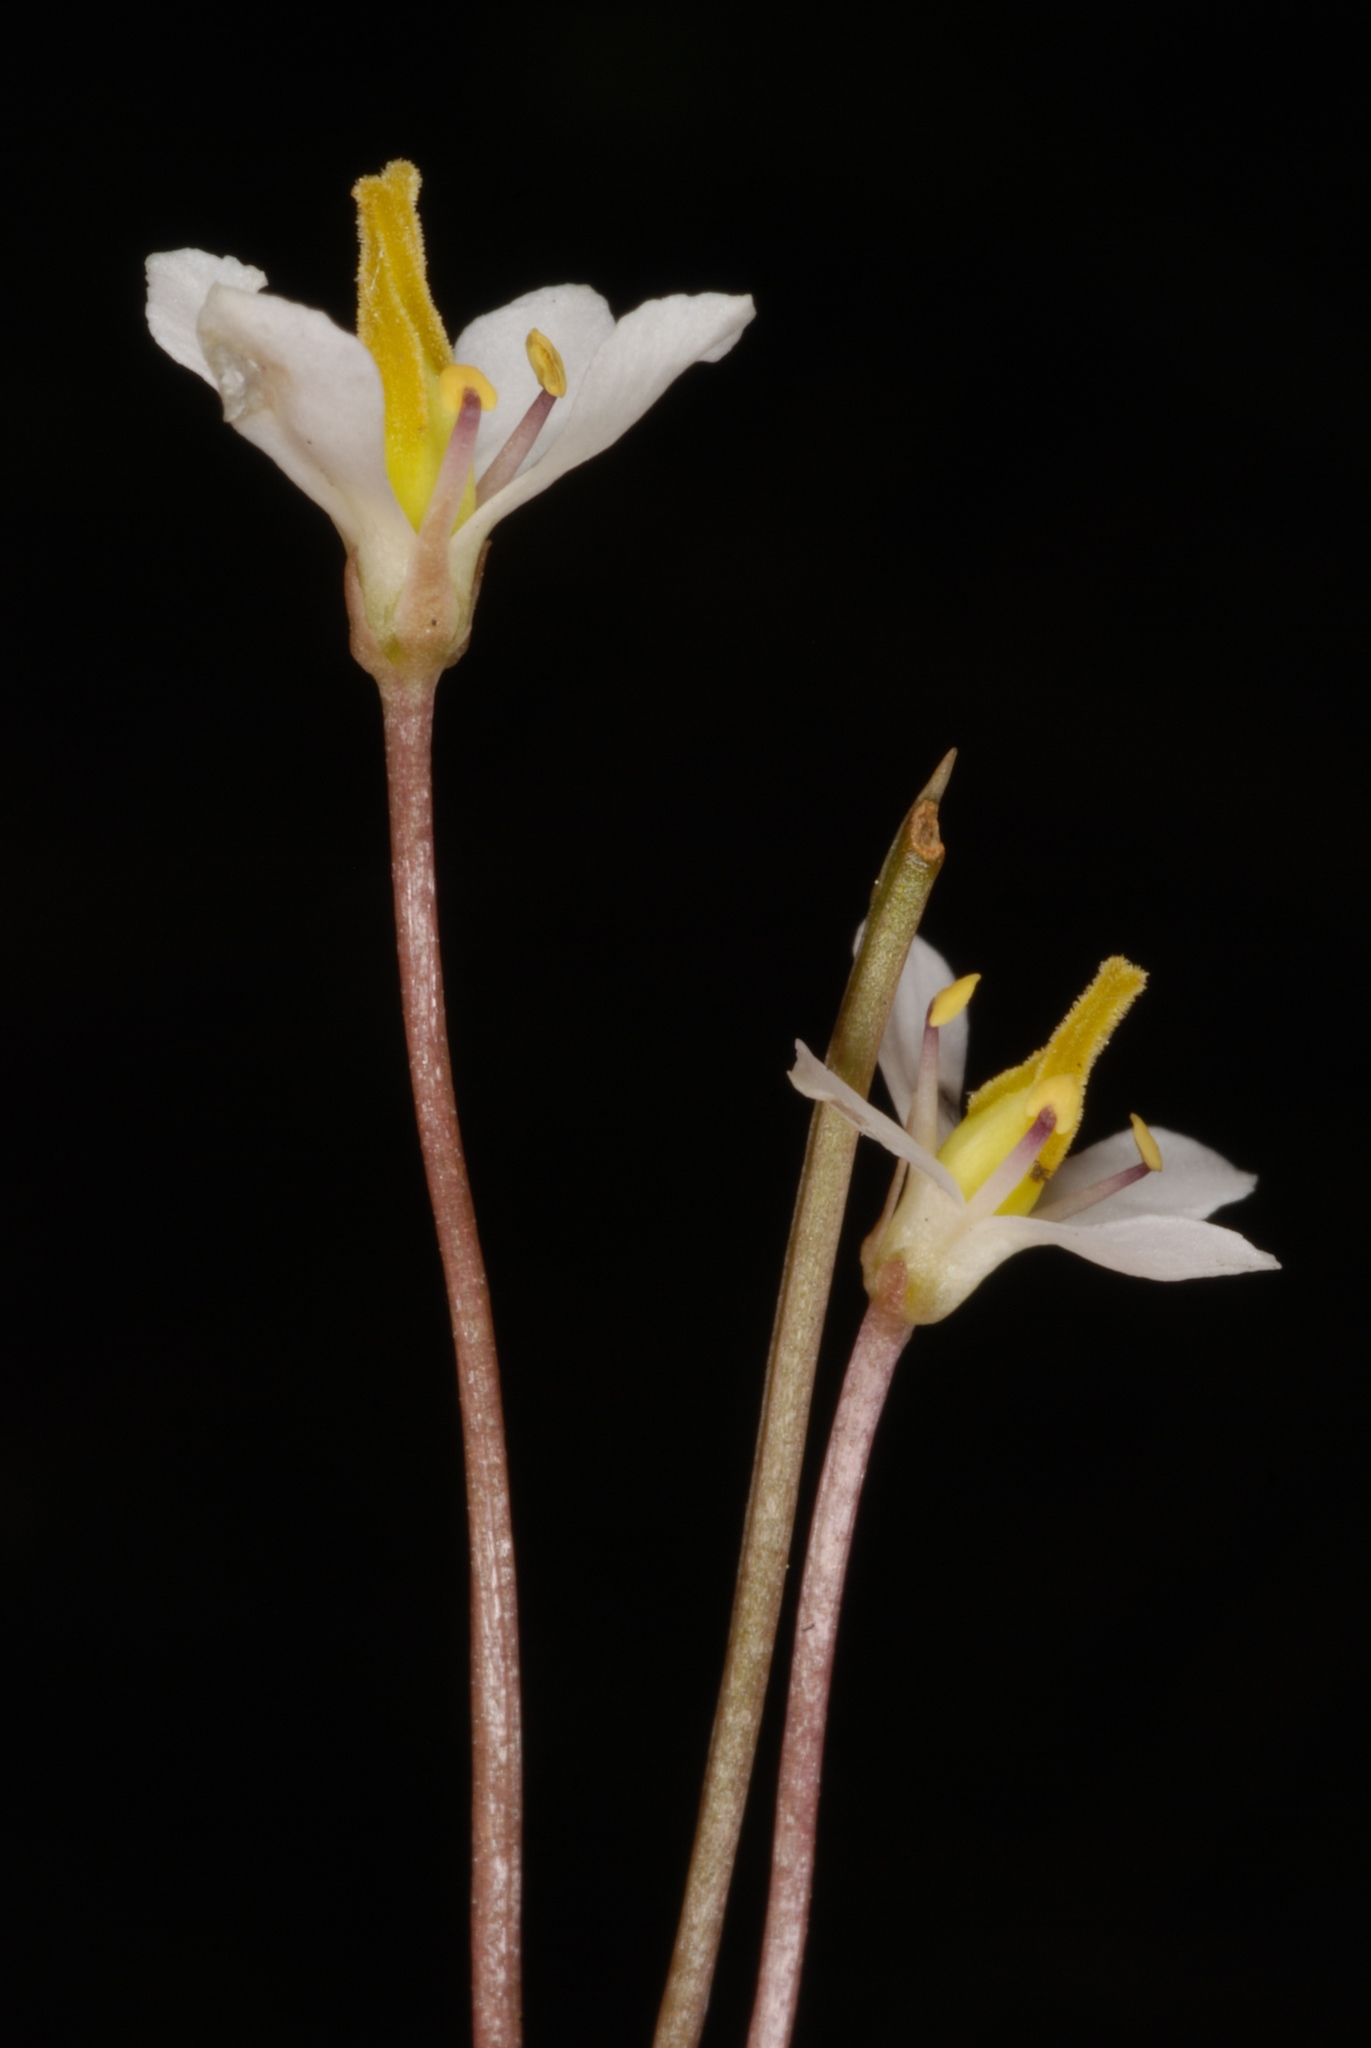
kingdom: Plantae
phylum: Tracheophyta
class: Magnoliopsida
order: Gentianales
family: Gentianaceae
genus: Bartonia
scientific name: Bartonia verna
